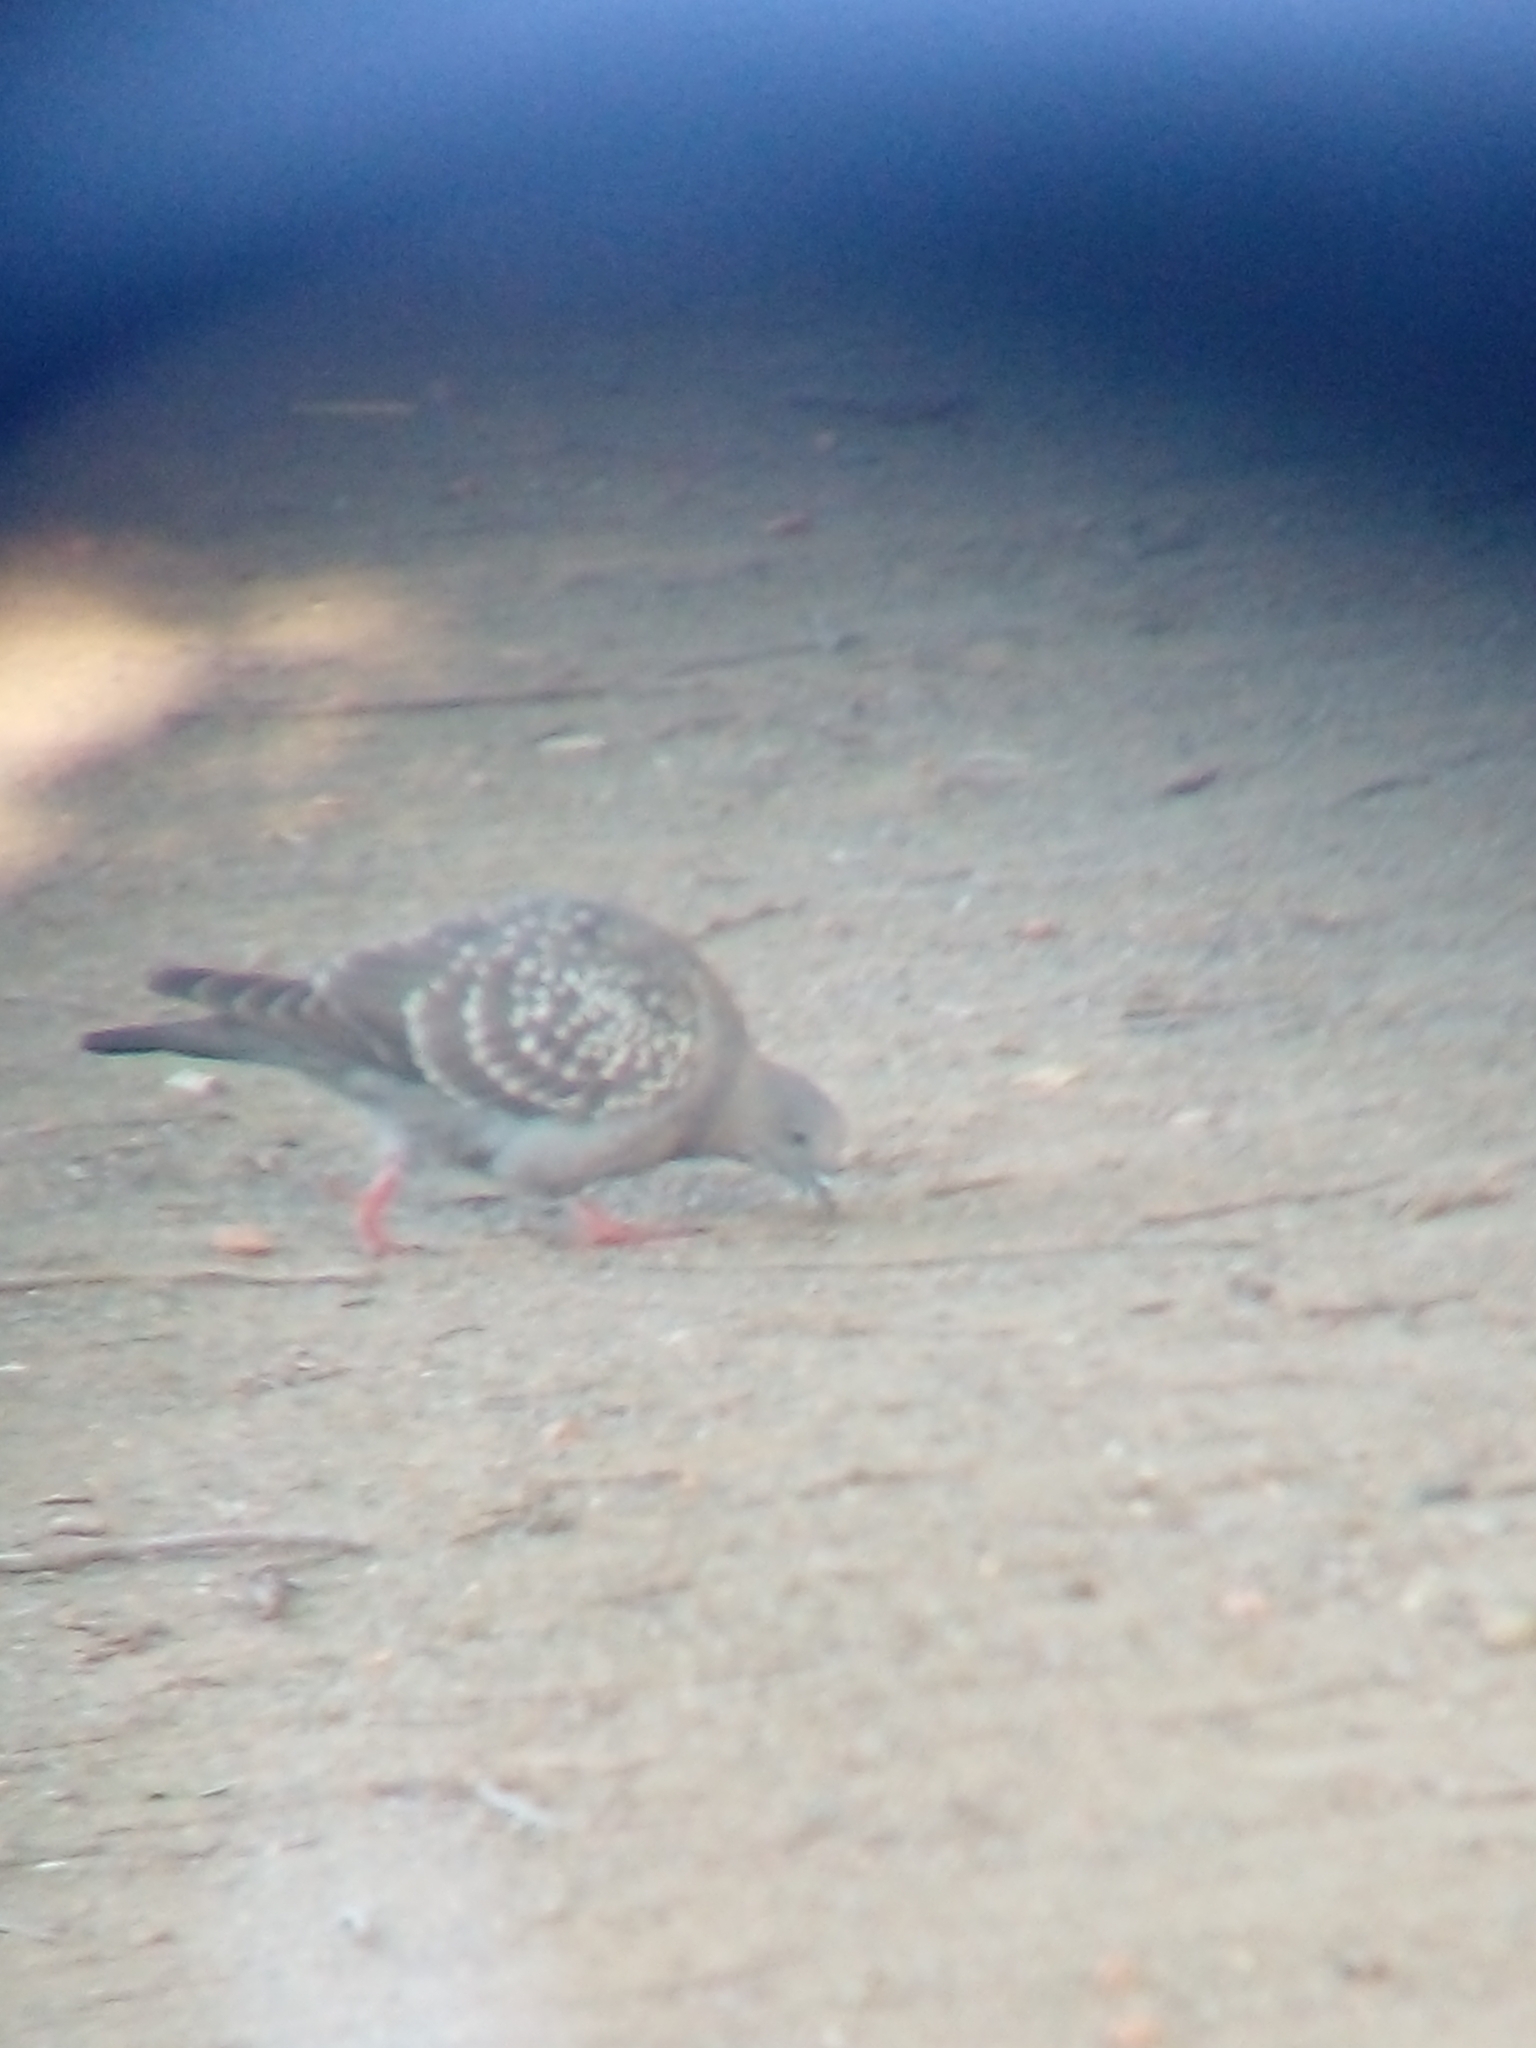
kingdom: Animalia
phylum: Chordata
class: Aves
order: Columbiformes
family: Columbidae
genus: Patagioenas
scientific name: Patagioenas maculosa
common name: Spot-winged pigeon
